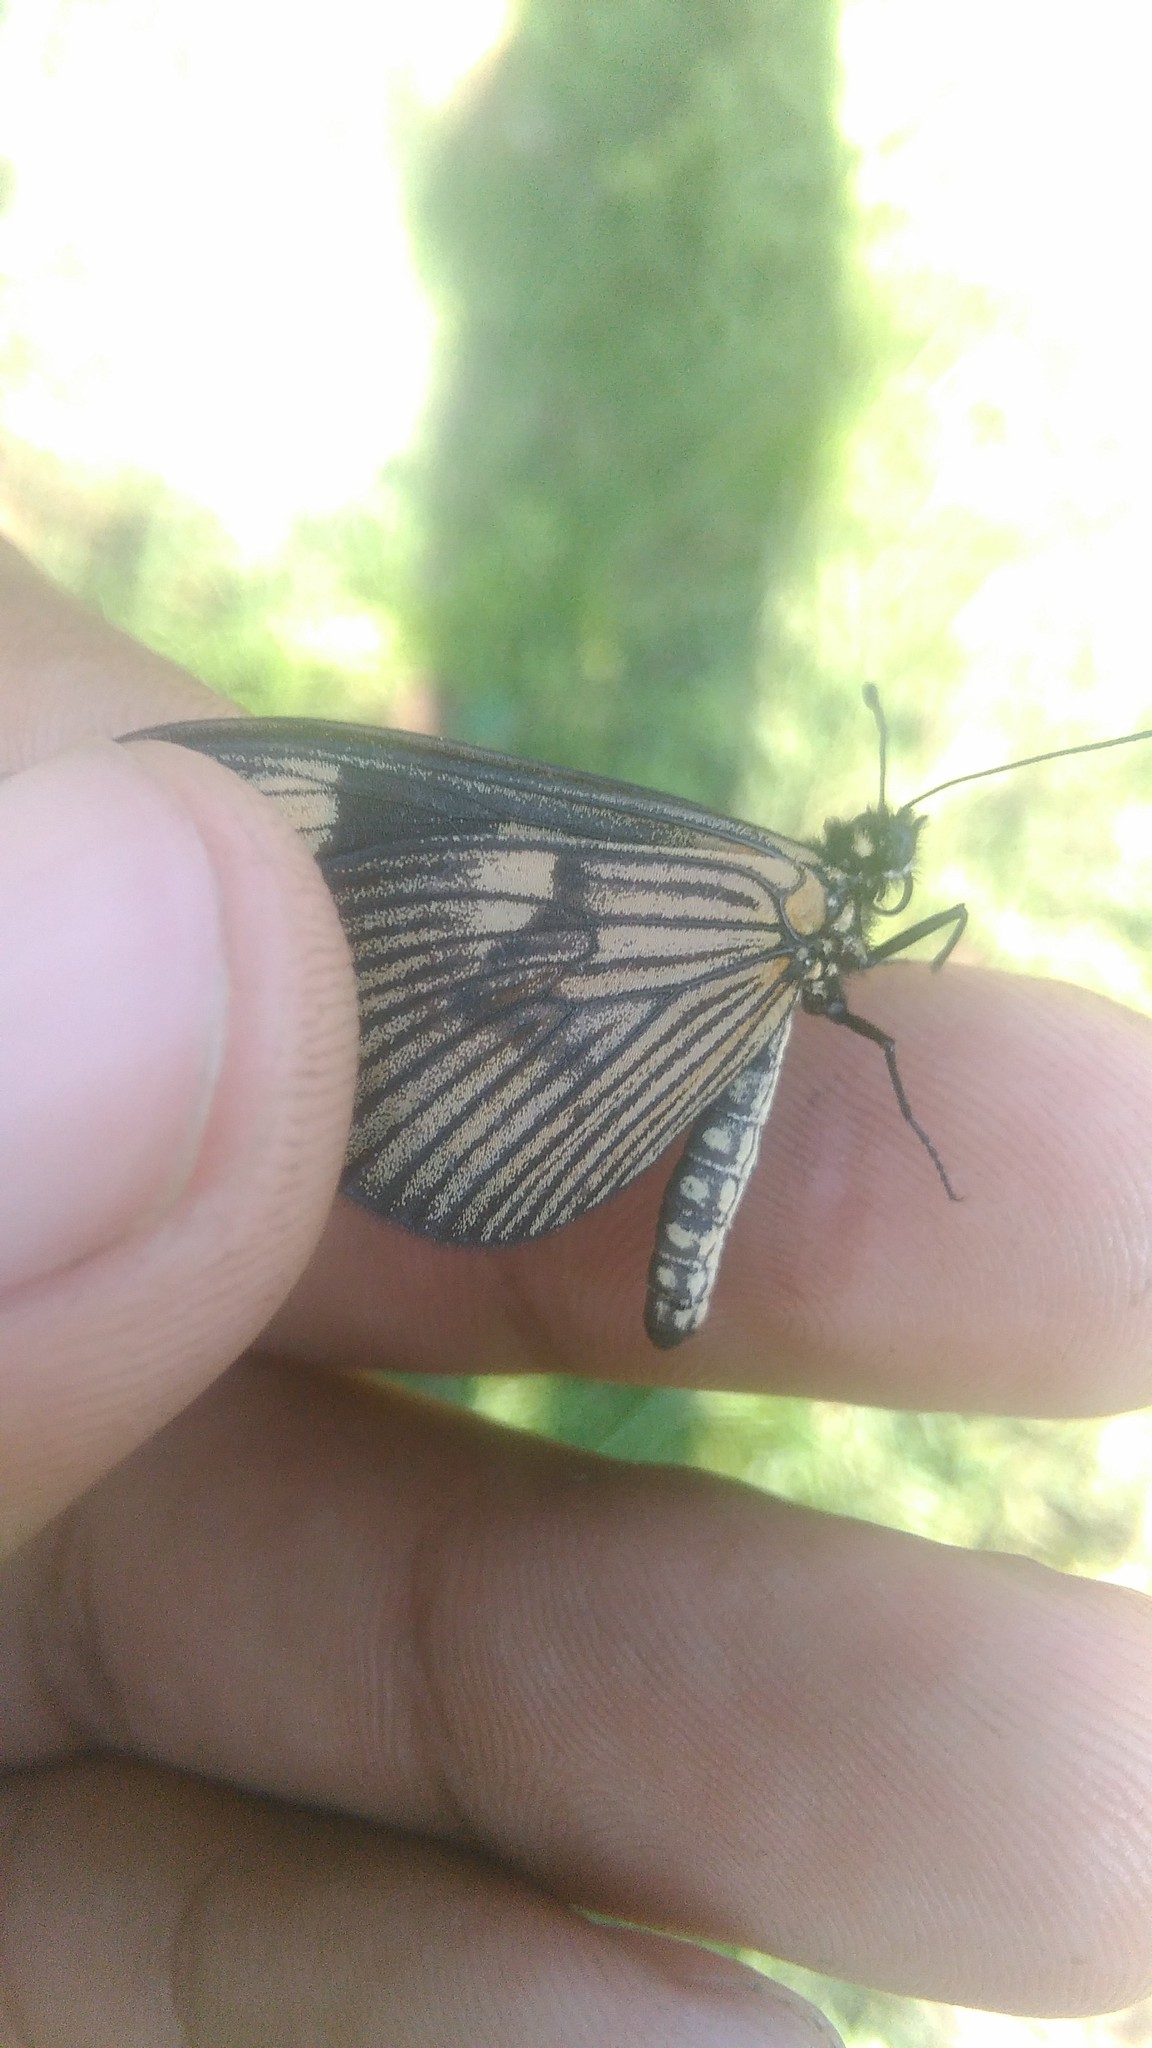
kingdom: Animalia
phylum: Arthropoda
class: Insecta
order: Lepidoptera
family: Nymphalidae
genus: Actinote
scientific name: Actinote pellenea
